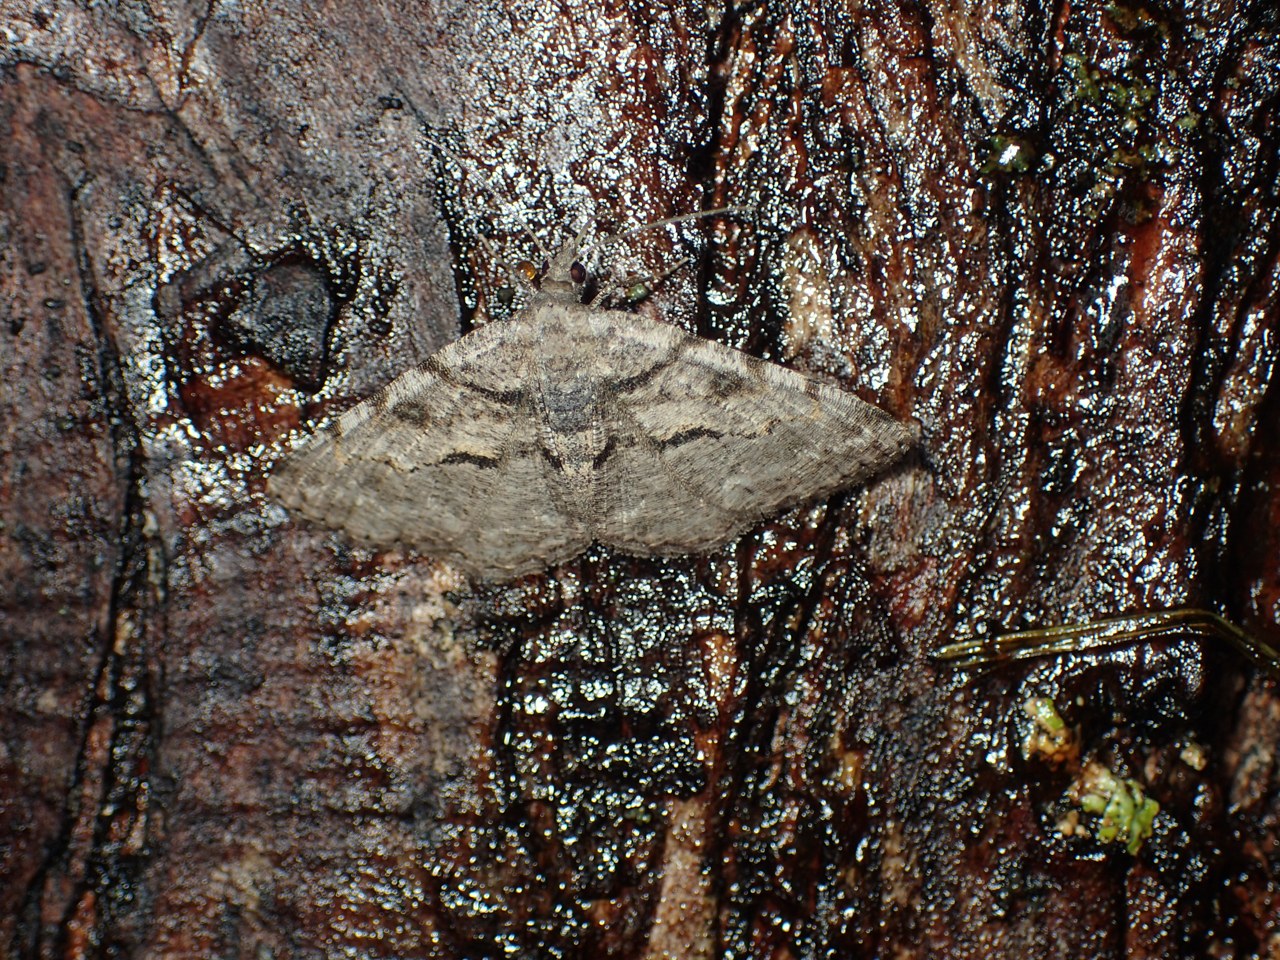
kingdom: Animalia
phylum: Arthropoda
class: Insecta
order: Lepidoptera
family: Geometridae
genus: Digrammia
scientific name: Digrammia gnophosaria
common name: Hollow-spotted angle
